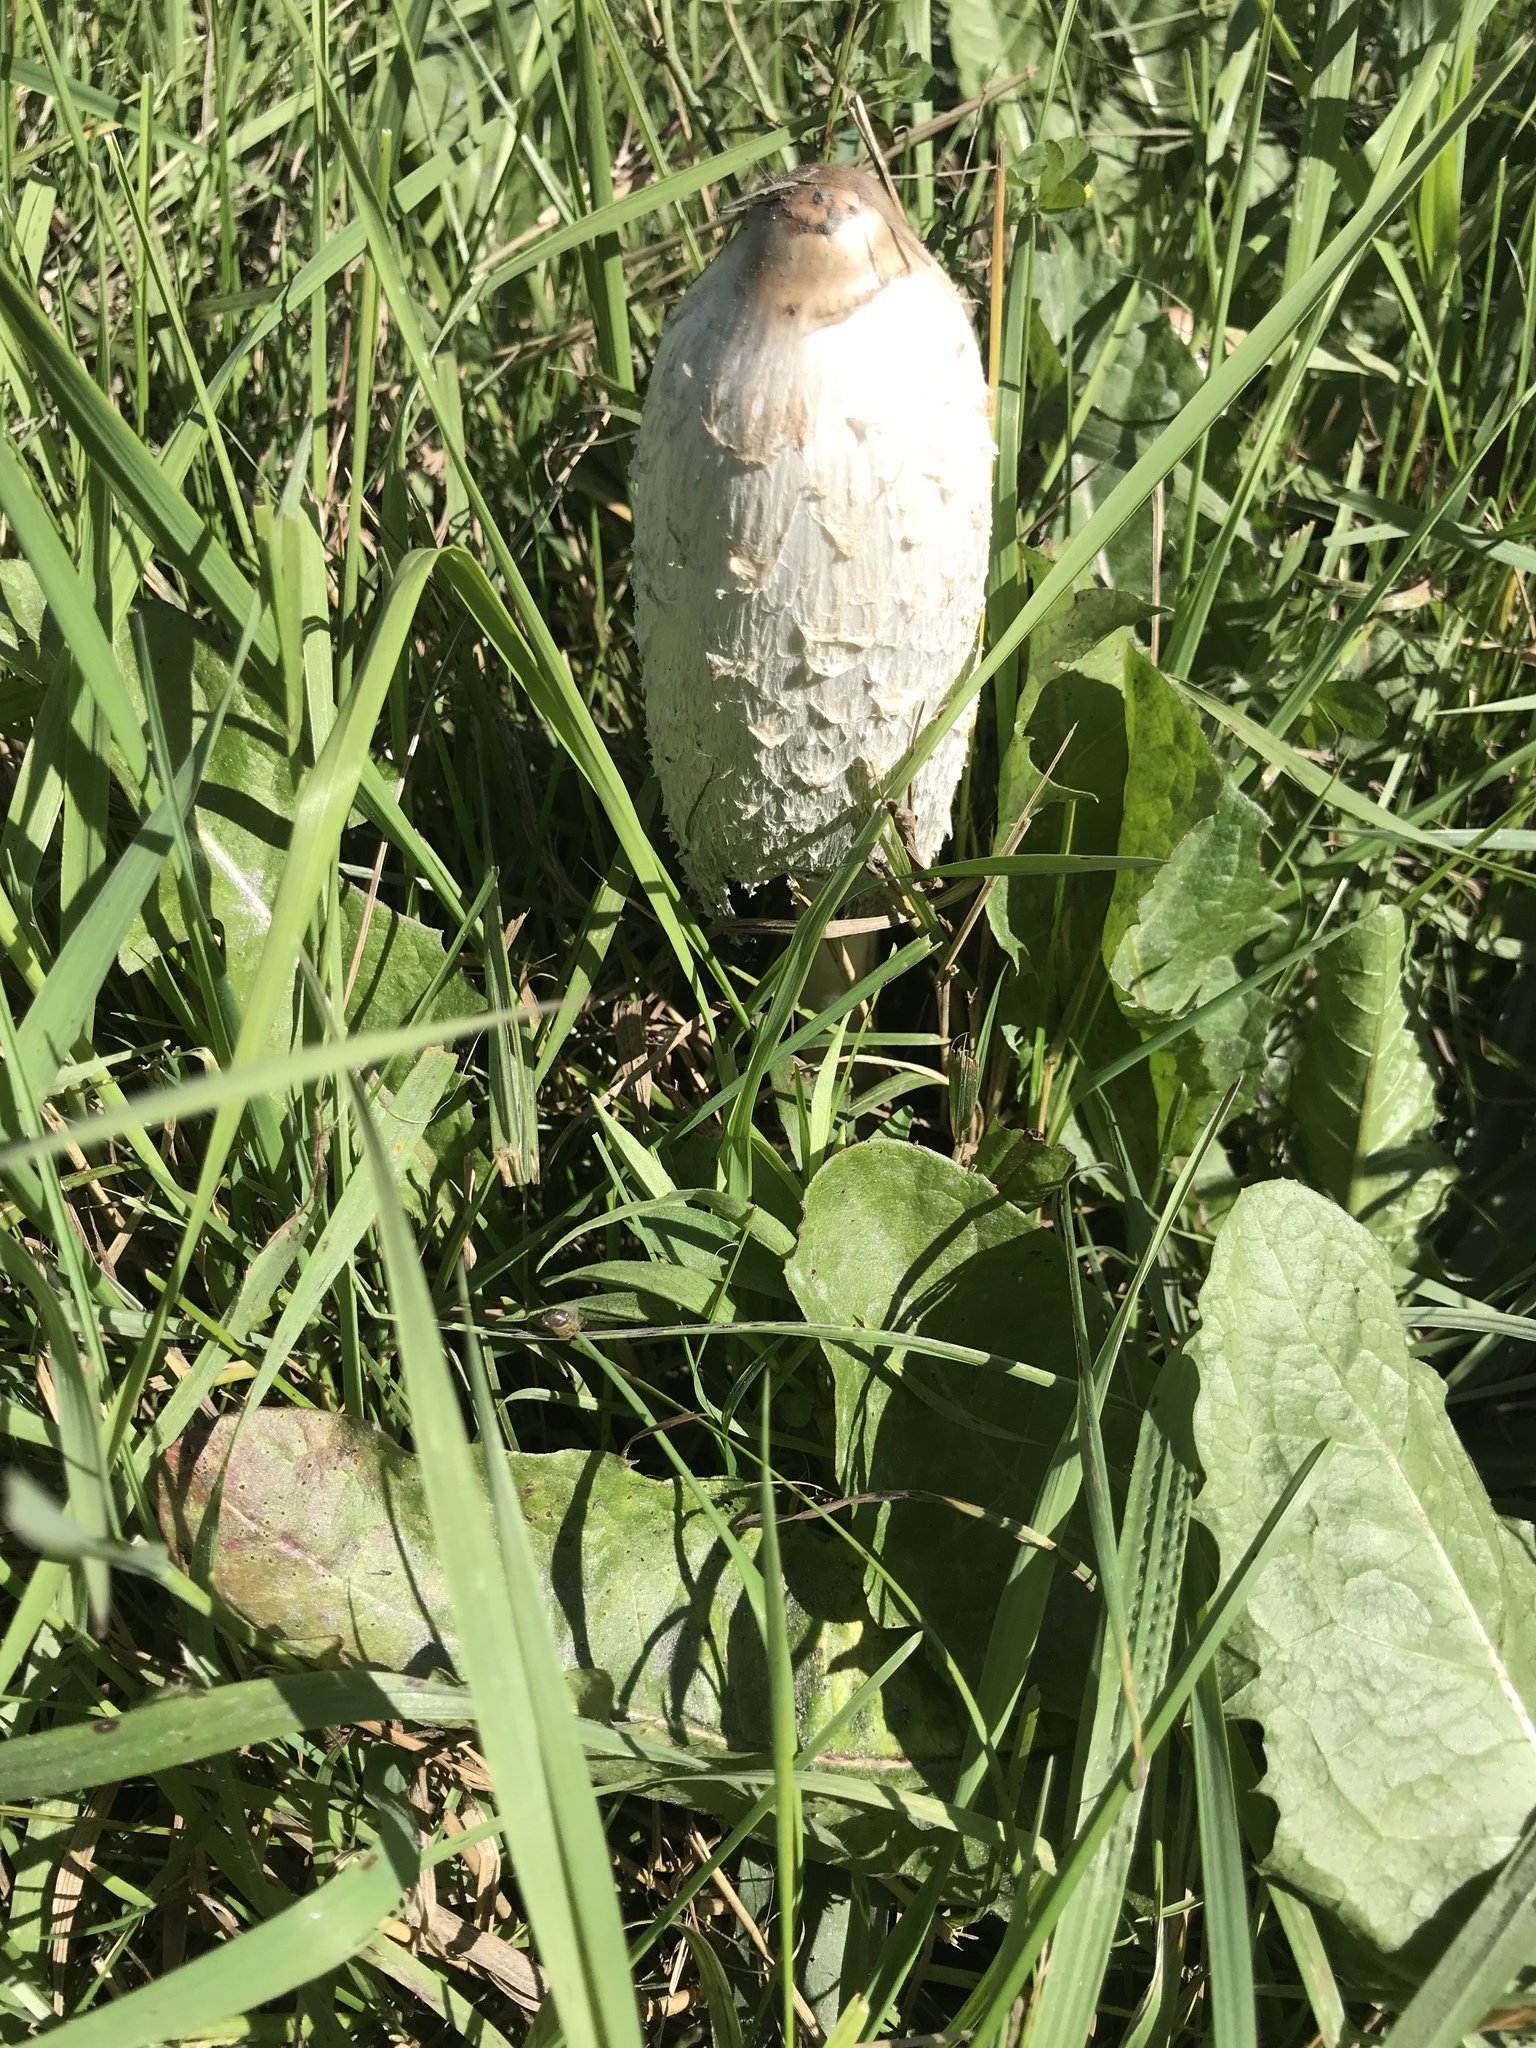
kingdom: Fungi
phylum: Basidiomycota
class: Agaricomycetes
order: Agaricales
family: Agaricaceae
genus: Coprinus
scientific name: Coprinus comatus
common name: Lawyer's wig
